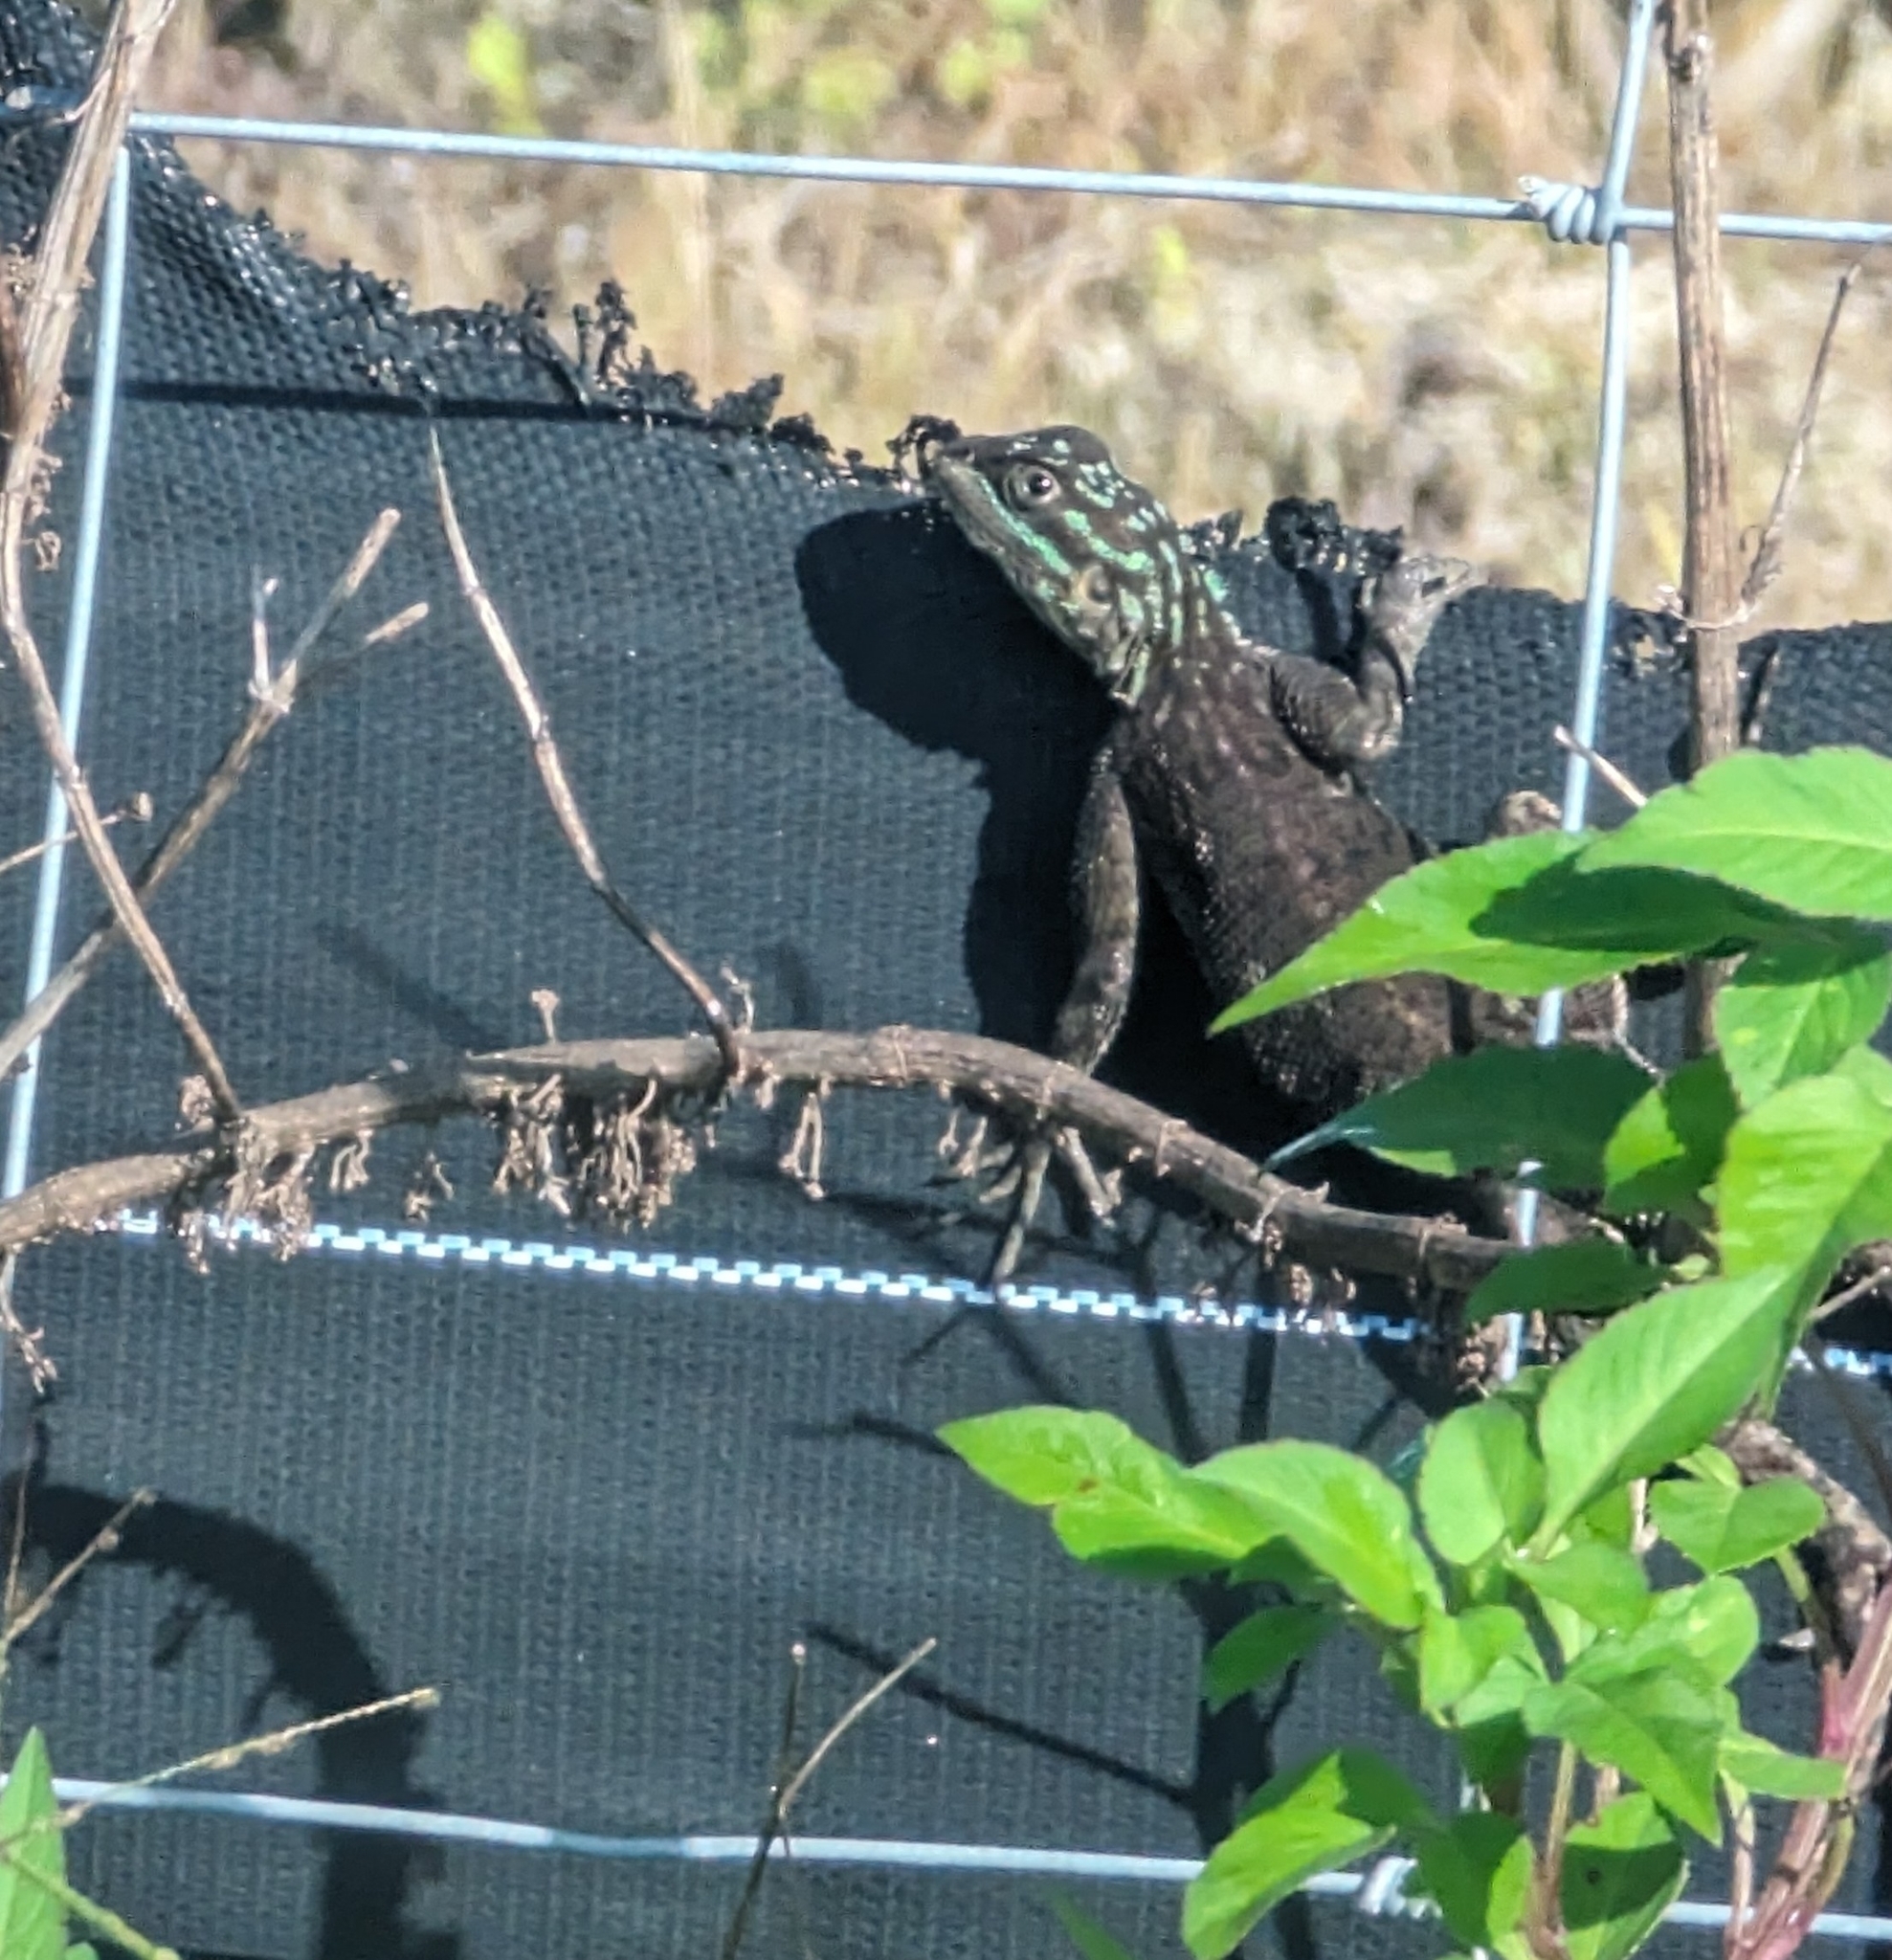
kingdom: Animalia
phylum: Chordata
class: Squamata
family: Agamidae
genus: Agama
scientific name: Agama picticauda
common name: Red-headed agama
